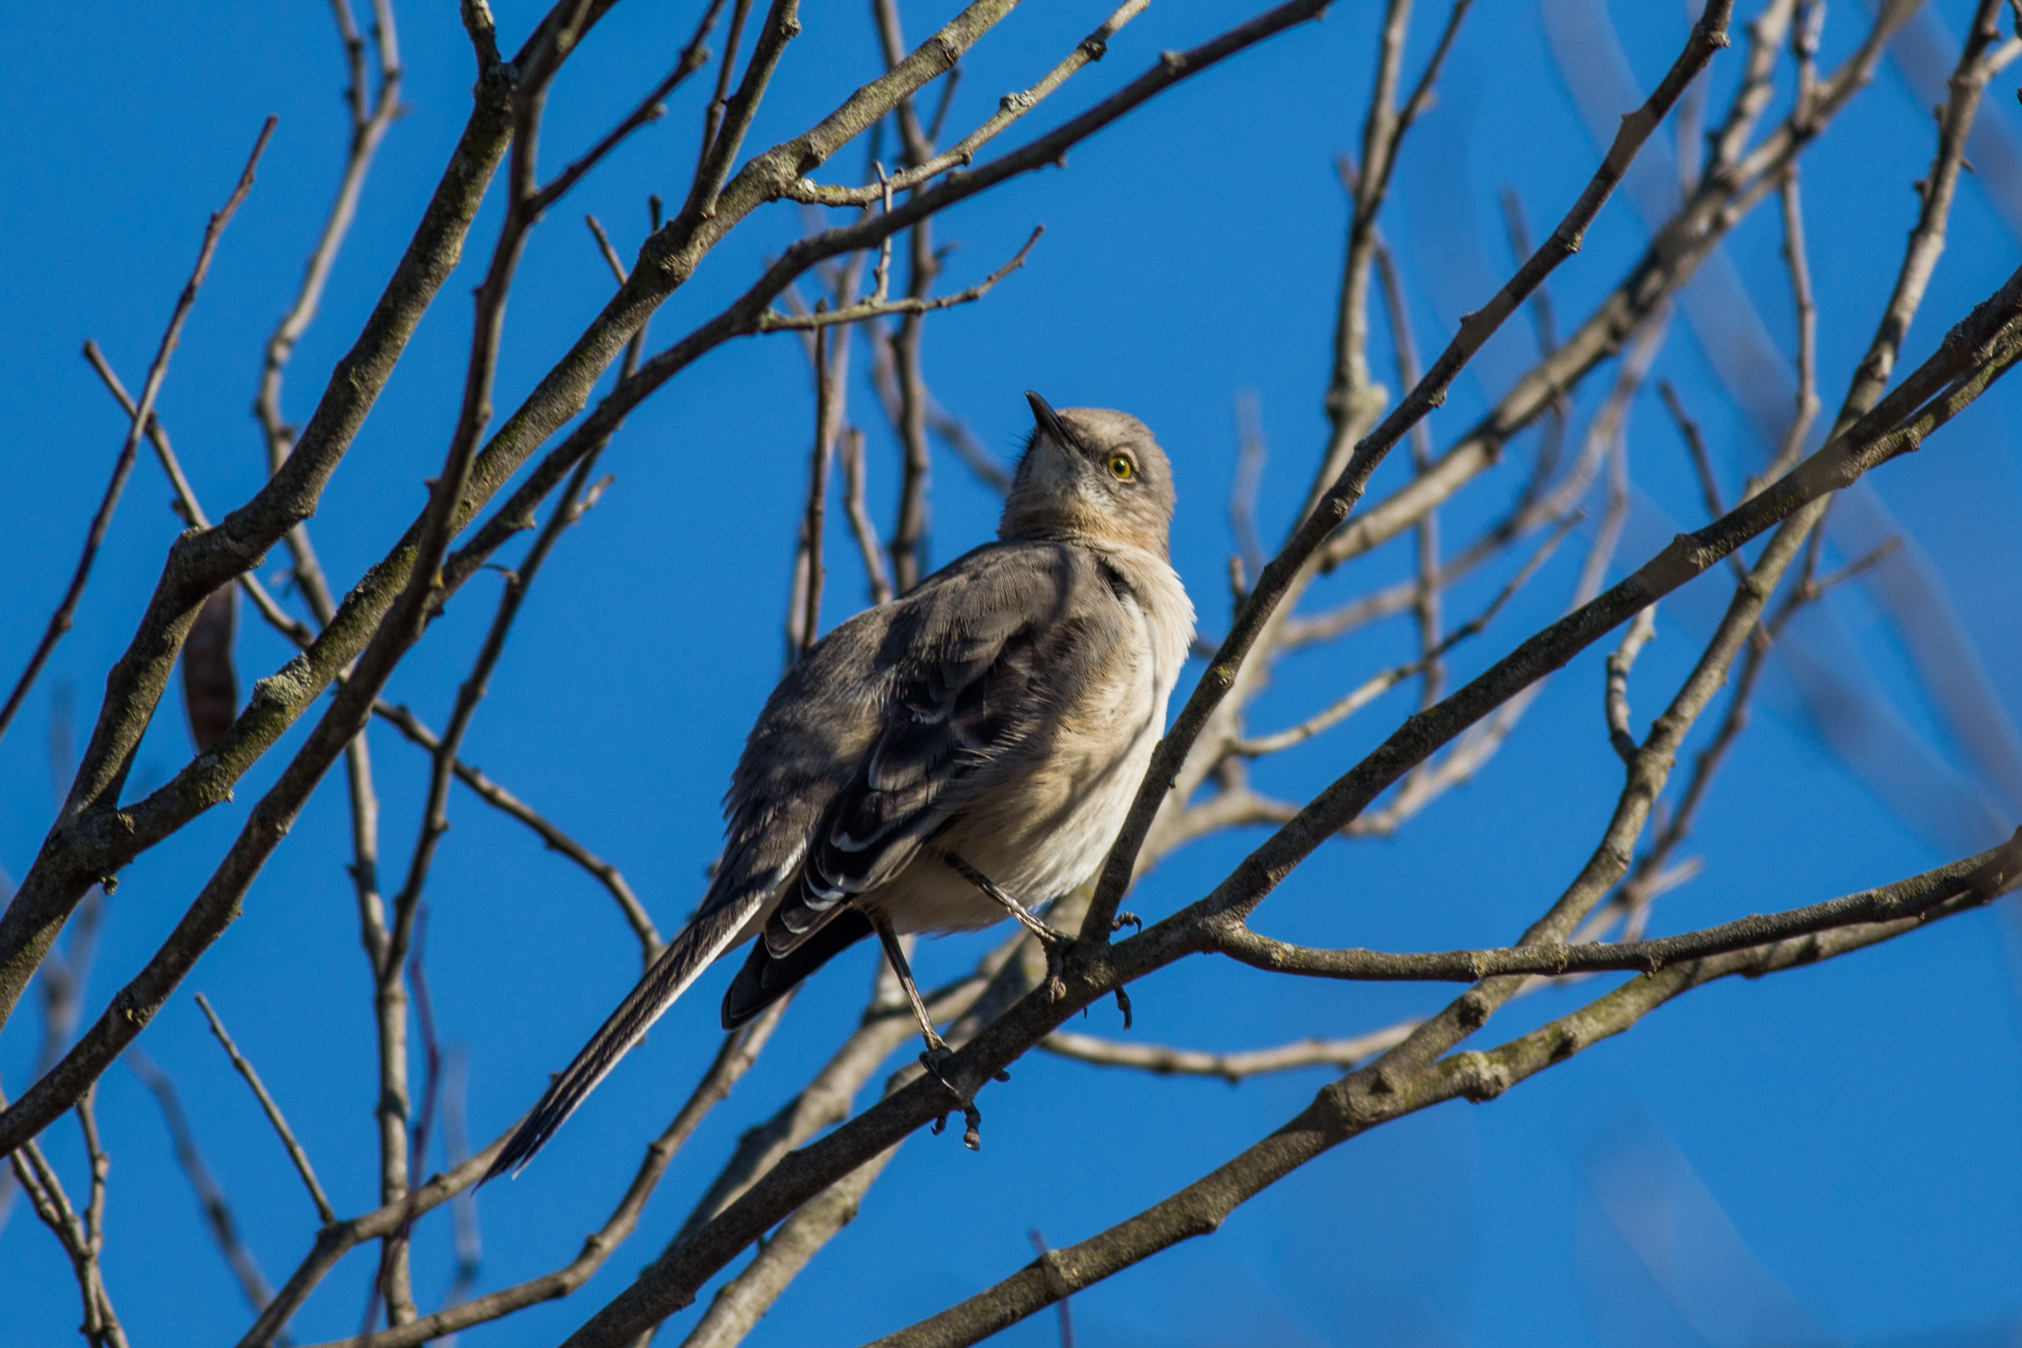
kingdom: Animalia
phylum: Chordata
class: Aves
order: Passeriformes
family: Mimidae
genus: Mimus
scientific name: Mimus polyglottos
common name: Northern mockingbird
